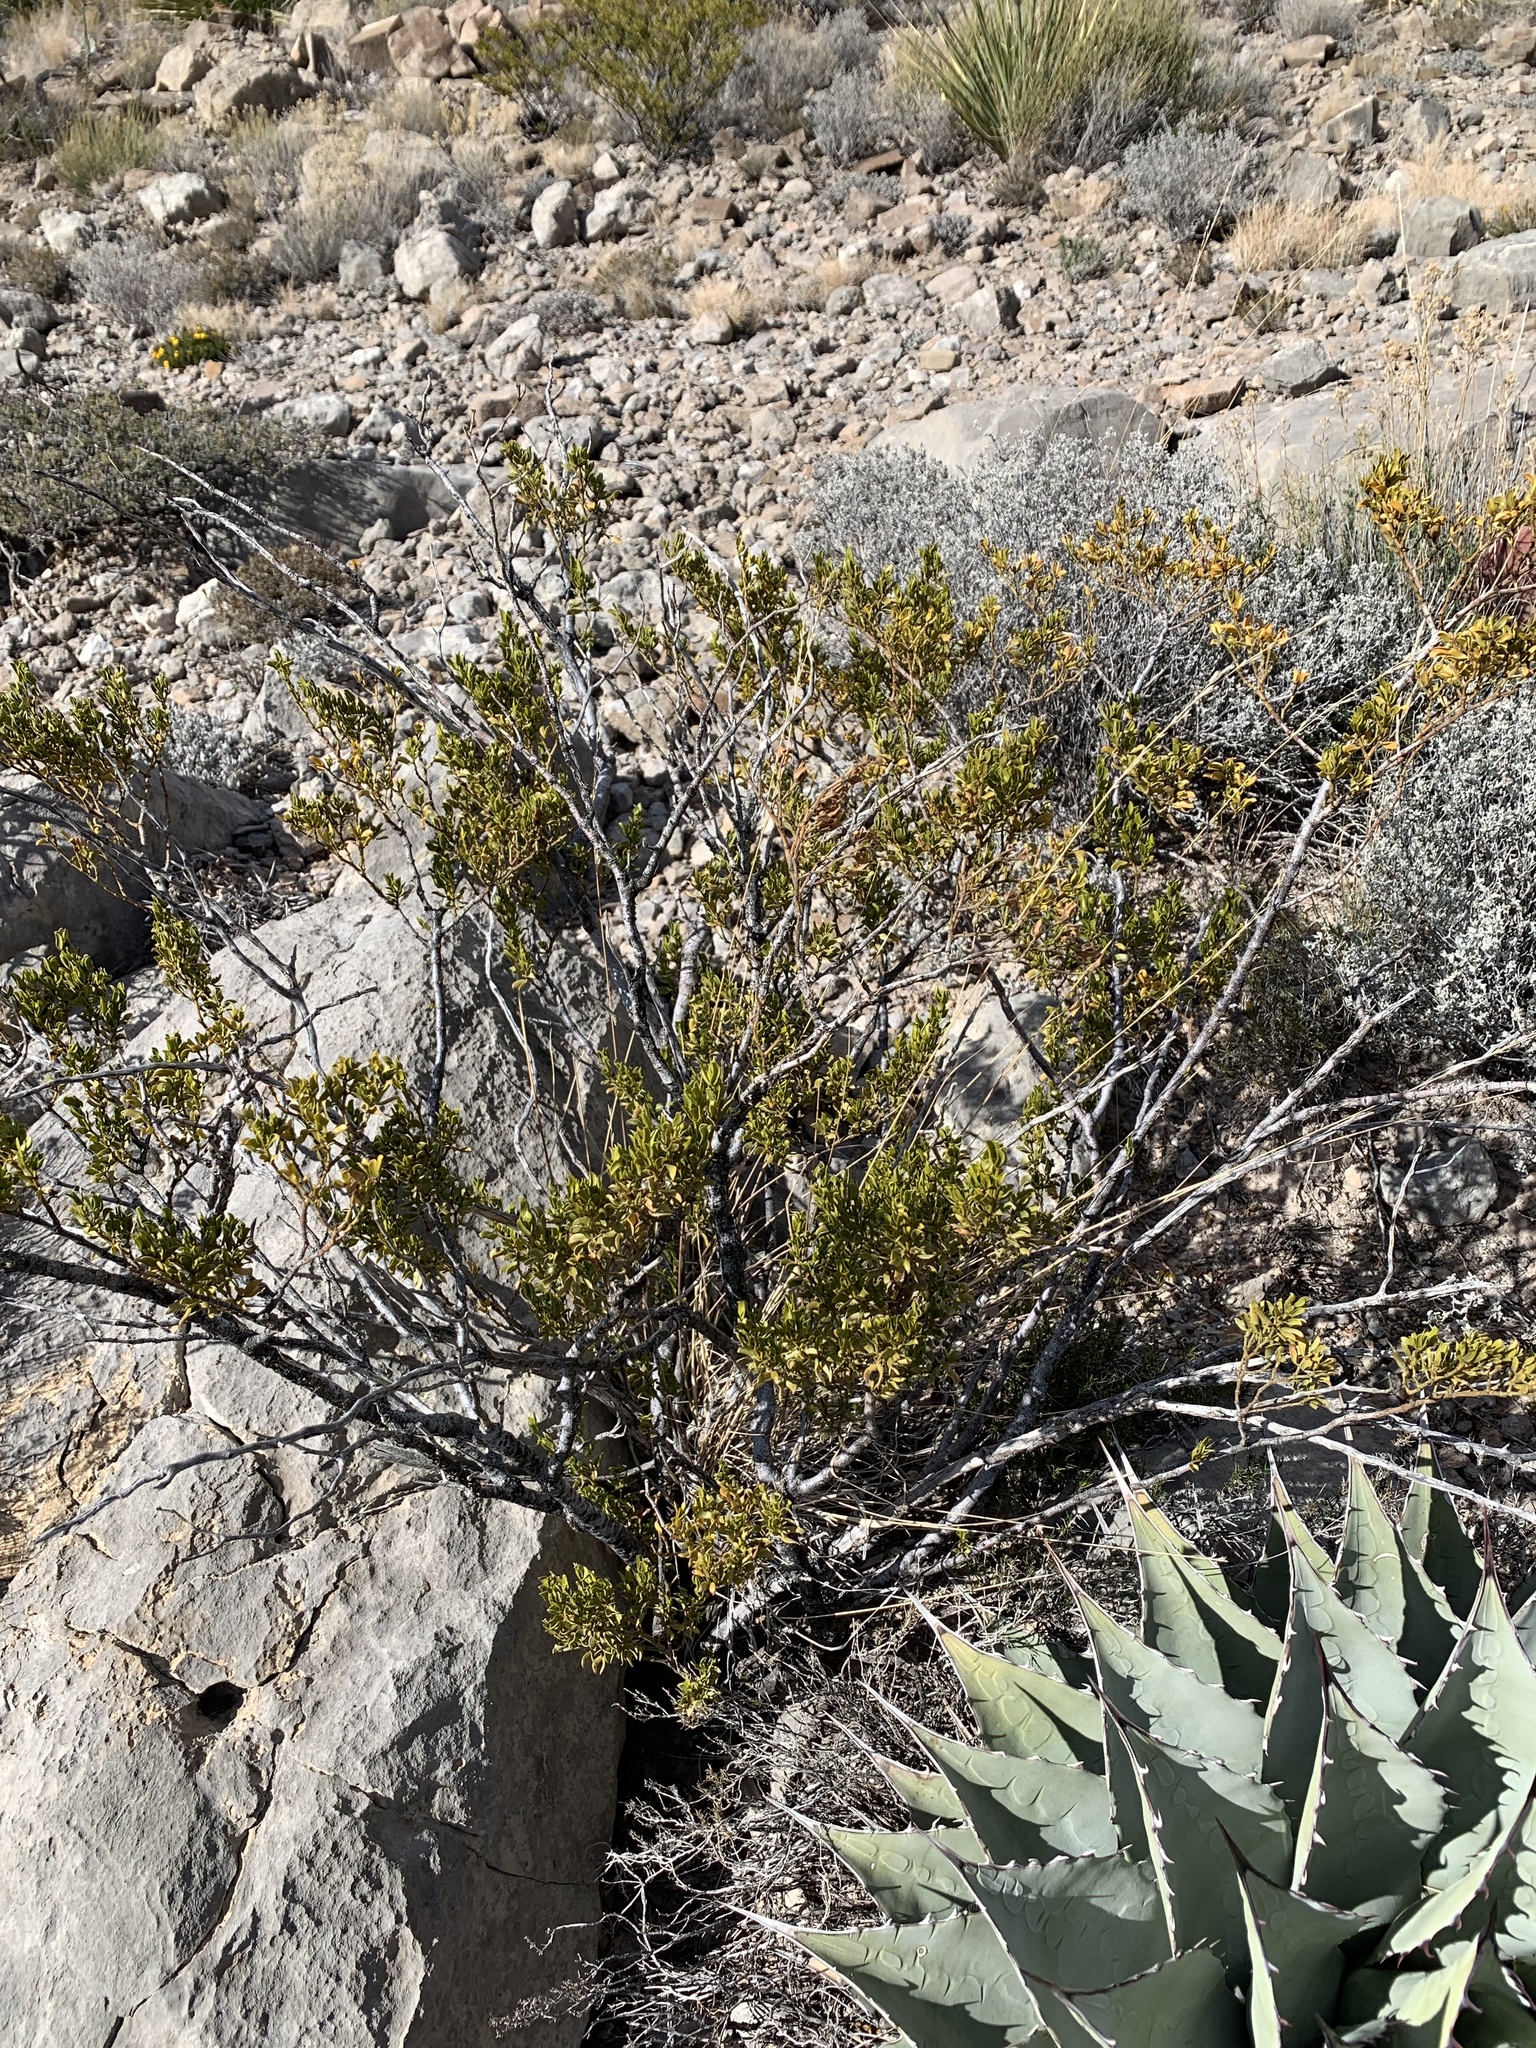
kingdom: Plantae
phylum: Tracheophyta
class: Magnoliopsida
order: Zygophyllales
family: Zygophyllaceae
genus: Larrea
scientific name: Larrea tridentata
